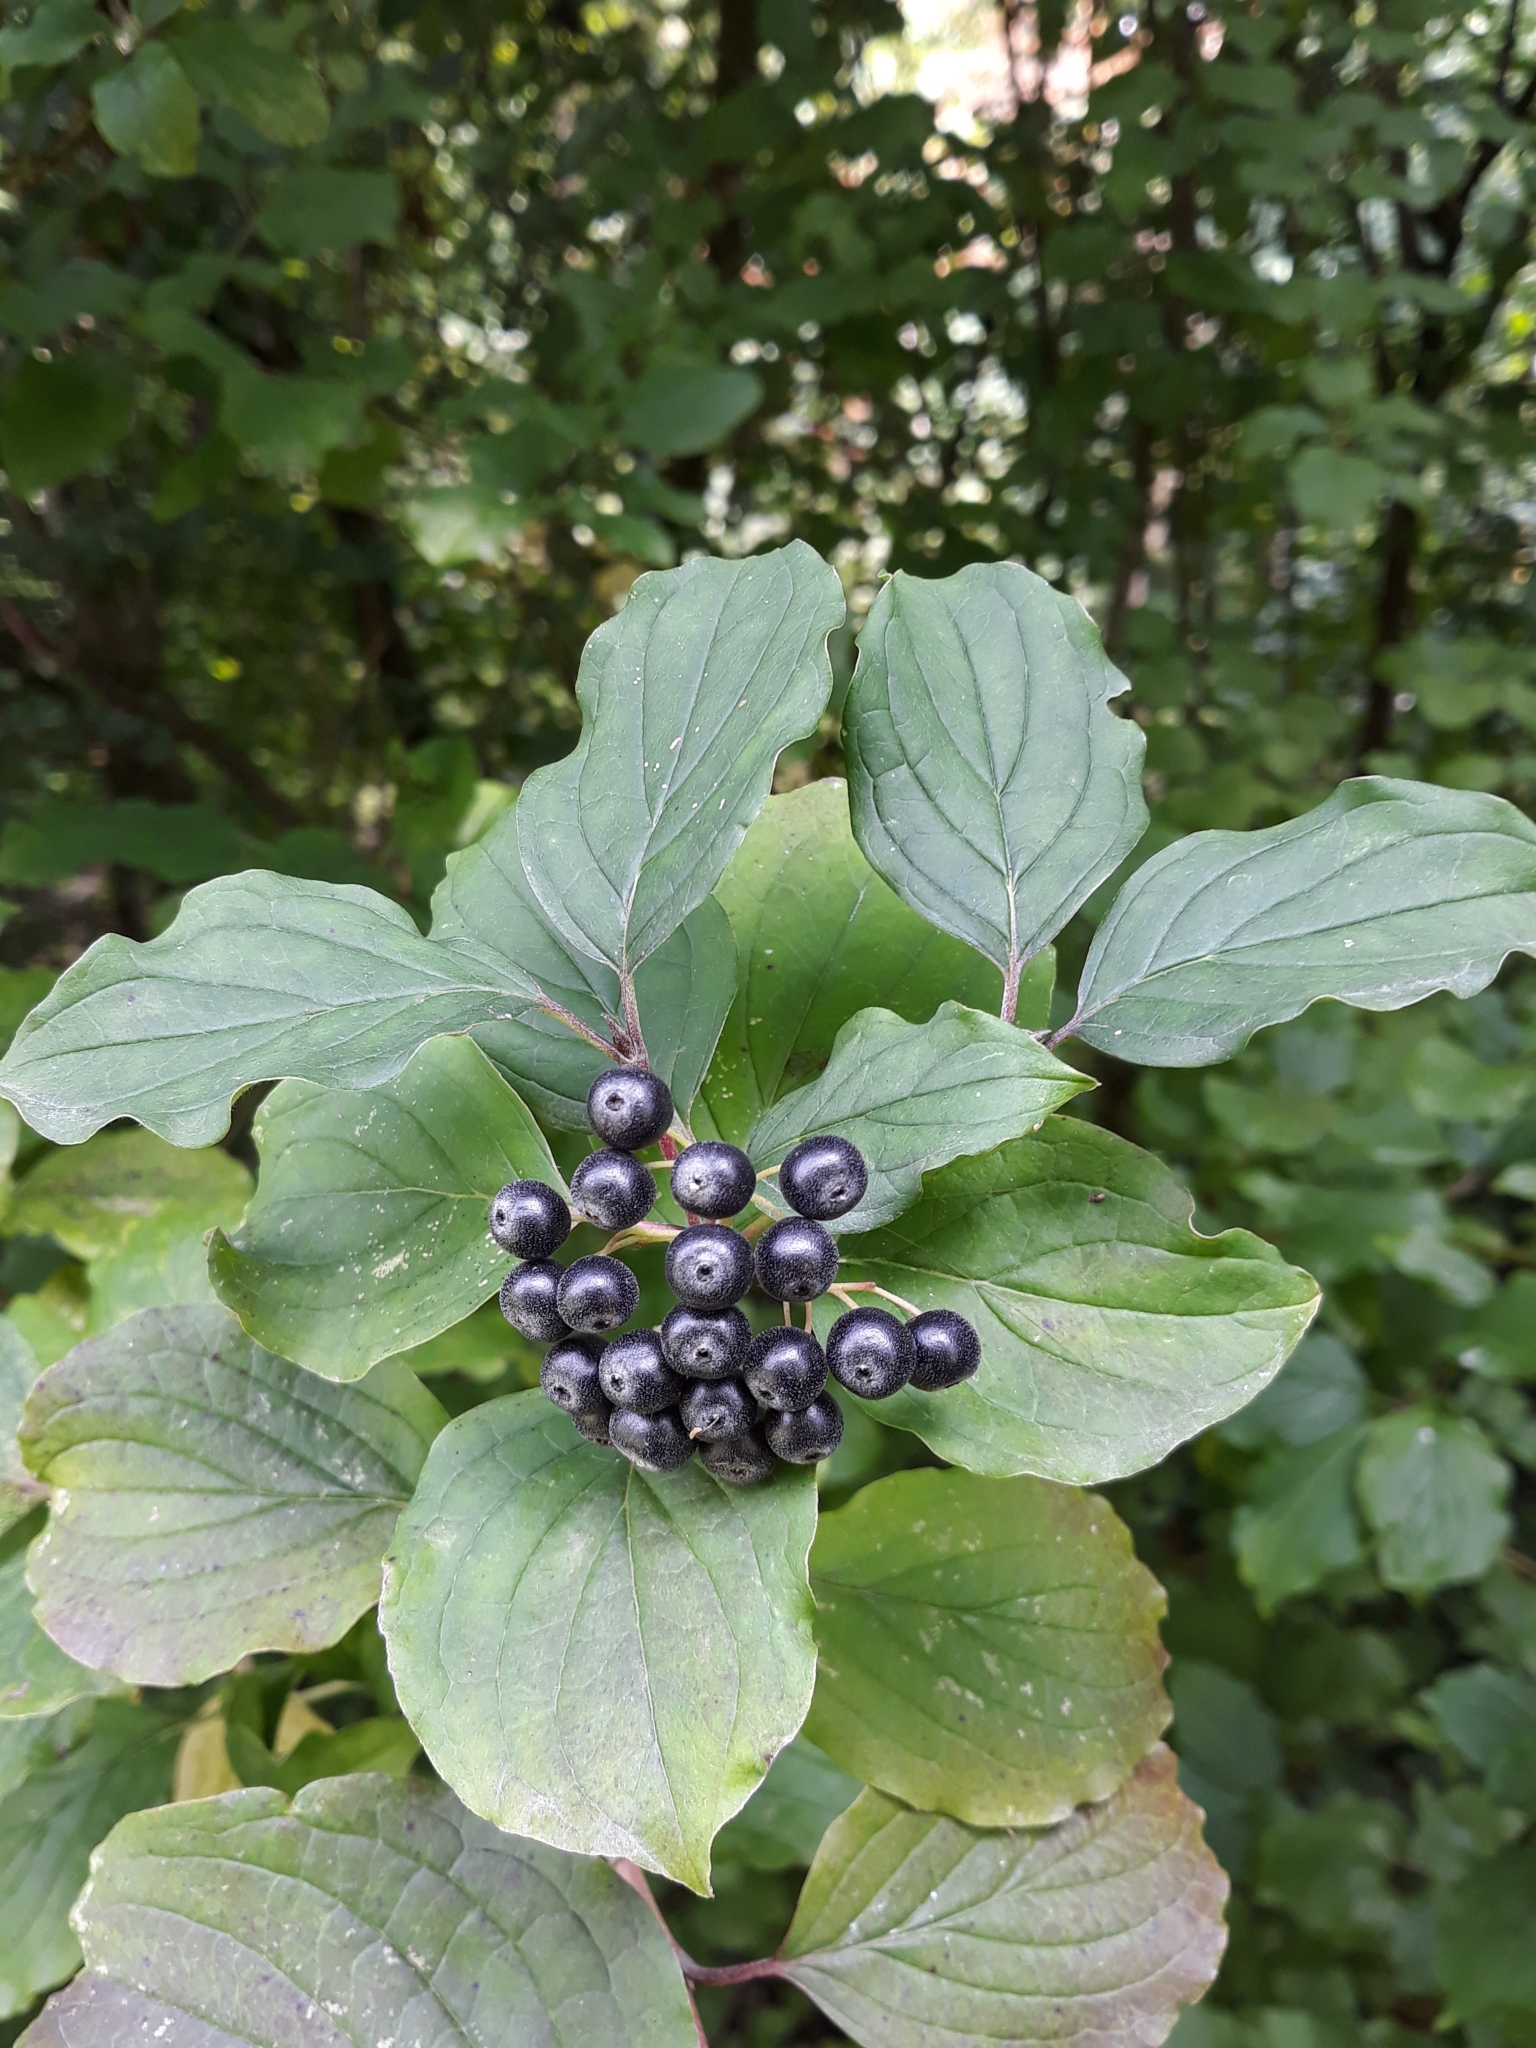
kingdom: Plantae
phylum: Tracheophyta
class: Magnoliopsida
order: Cornales
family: Cornaceae
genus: Cornus
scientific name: Cornus sanguinea
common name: Dogwood
